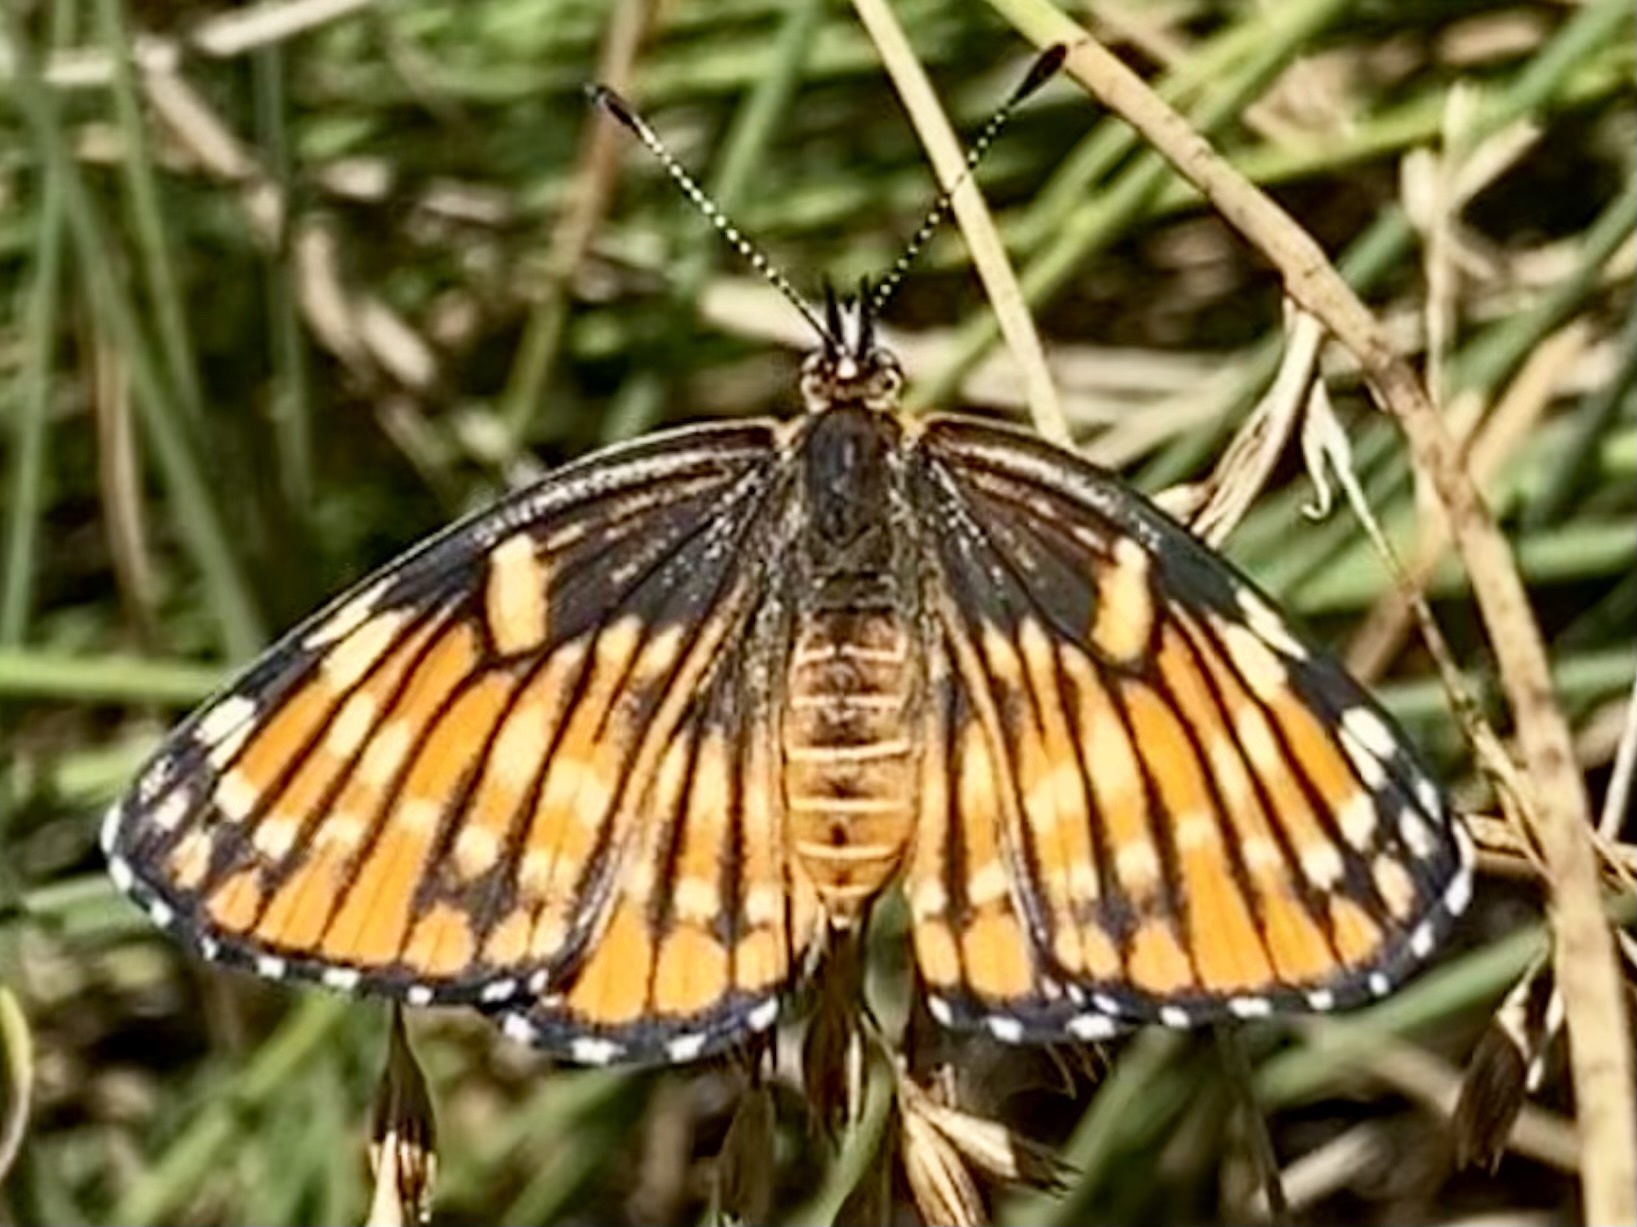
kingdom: Animalia
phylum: Arthropoda
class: Insecta
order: Lepidoptera
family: Nymphalidae
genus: Thessalia
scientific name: Thessalia leanira
